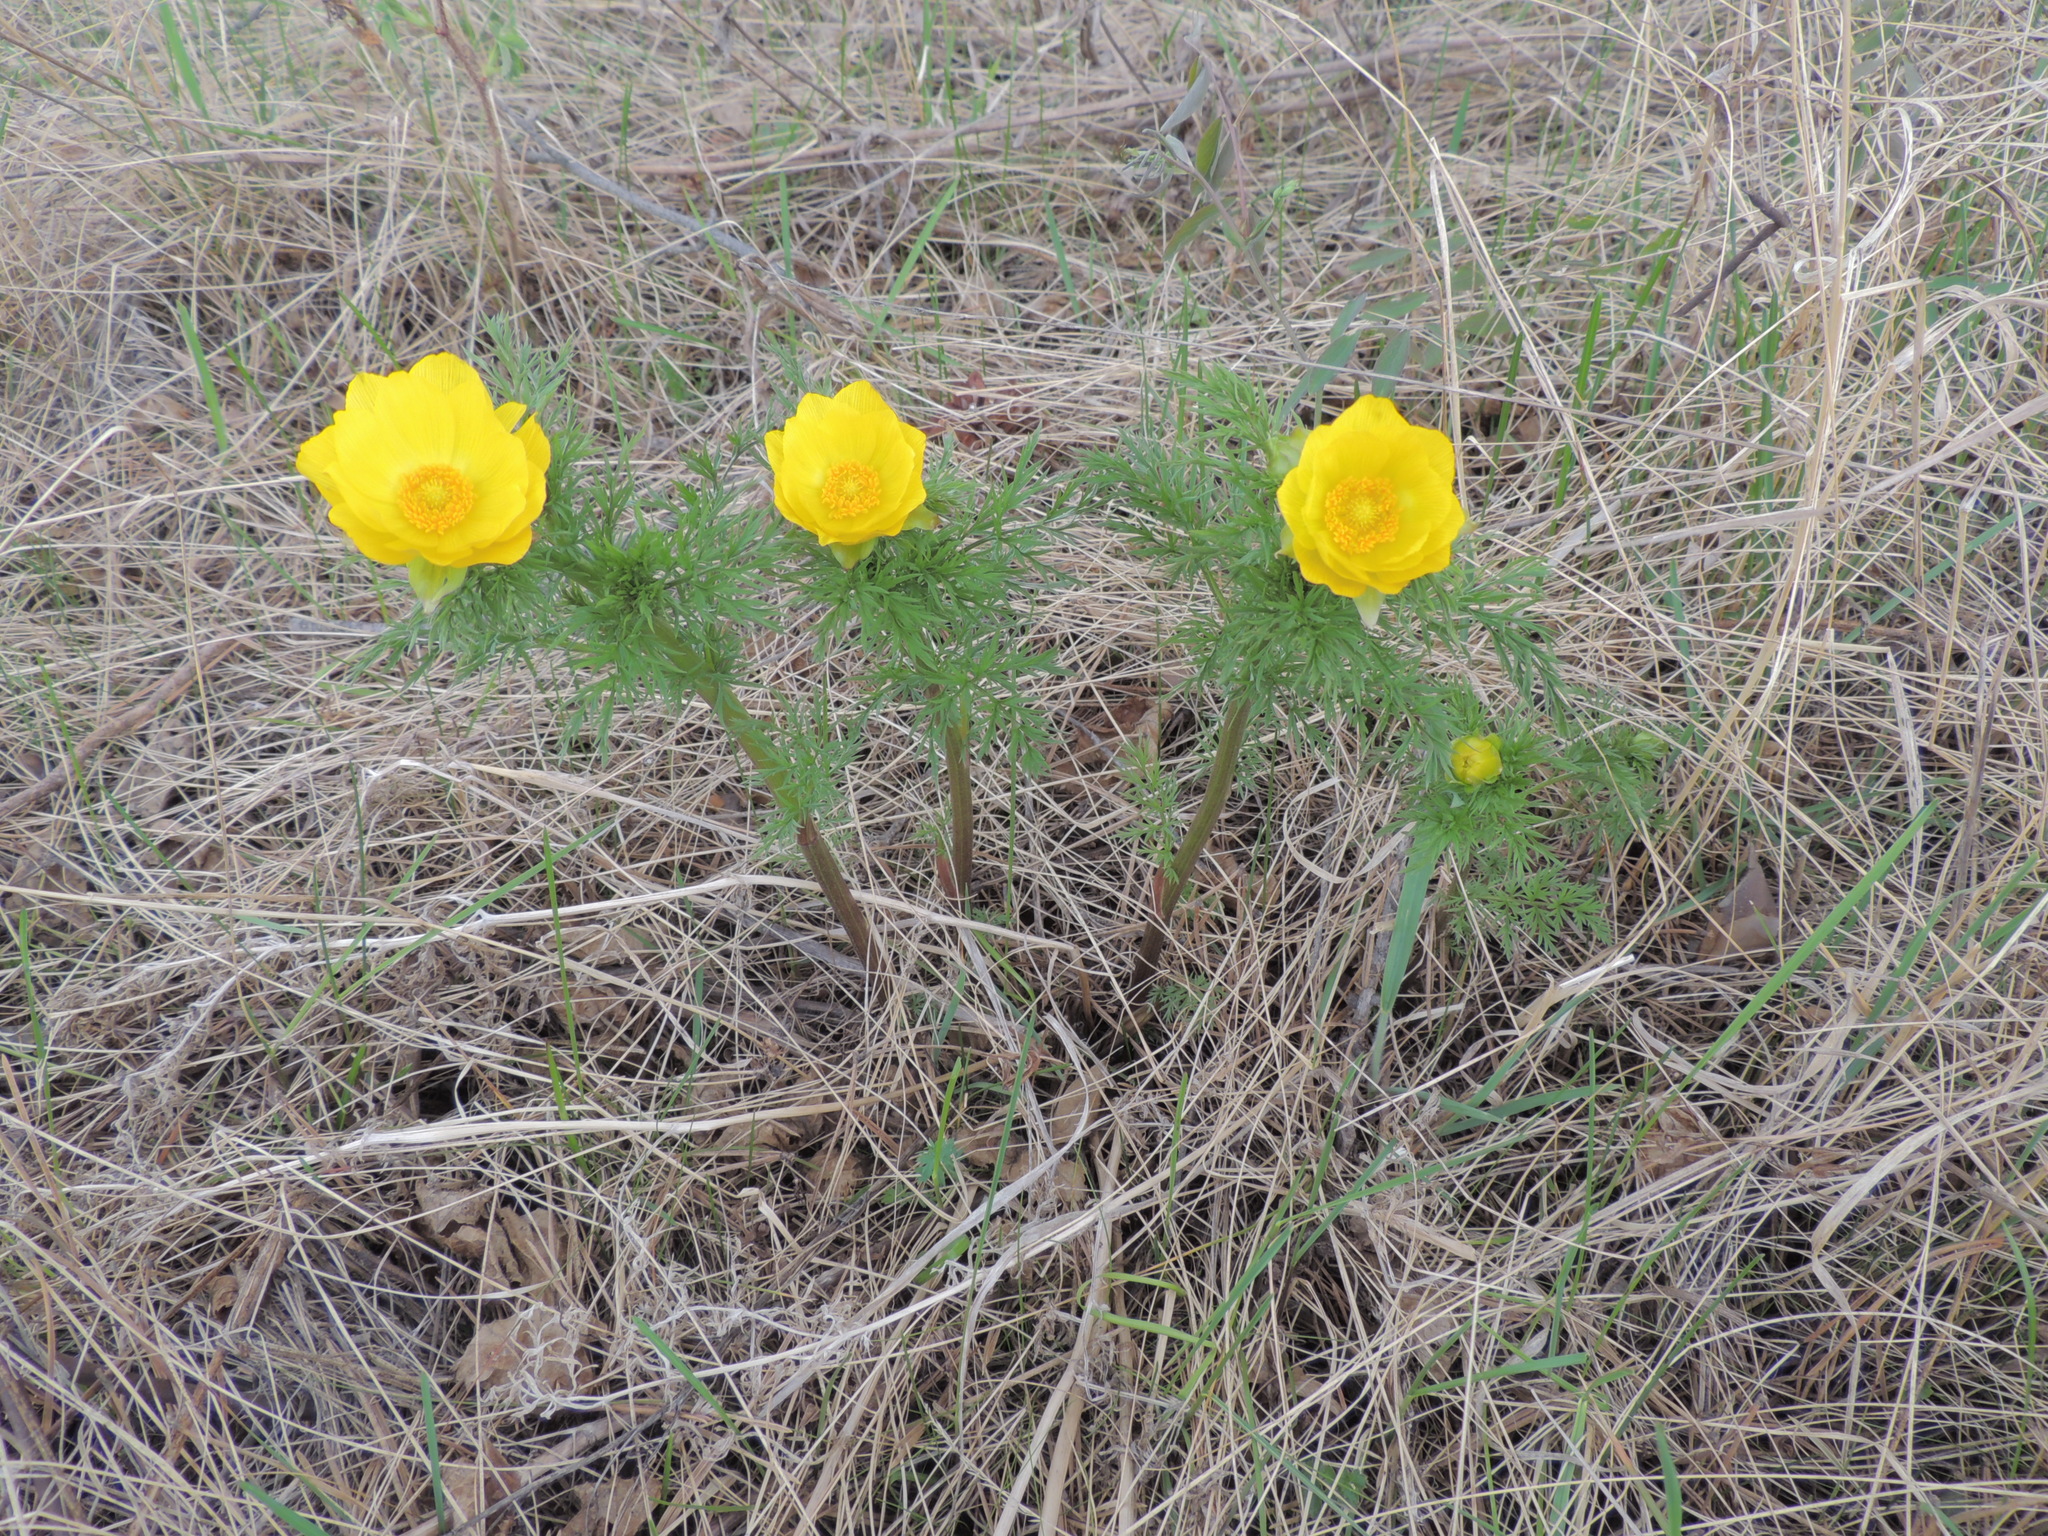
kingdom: Plantae
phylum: Tracheophyta
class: Magnoliopsida
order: Ranunculales
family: Ranunculaceae
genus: Adonis
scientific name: Adonis
